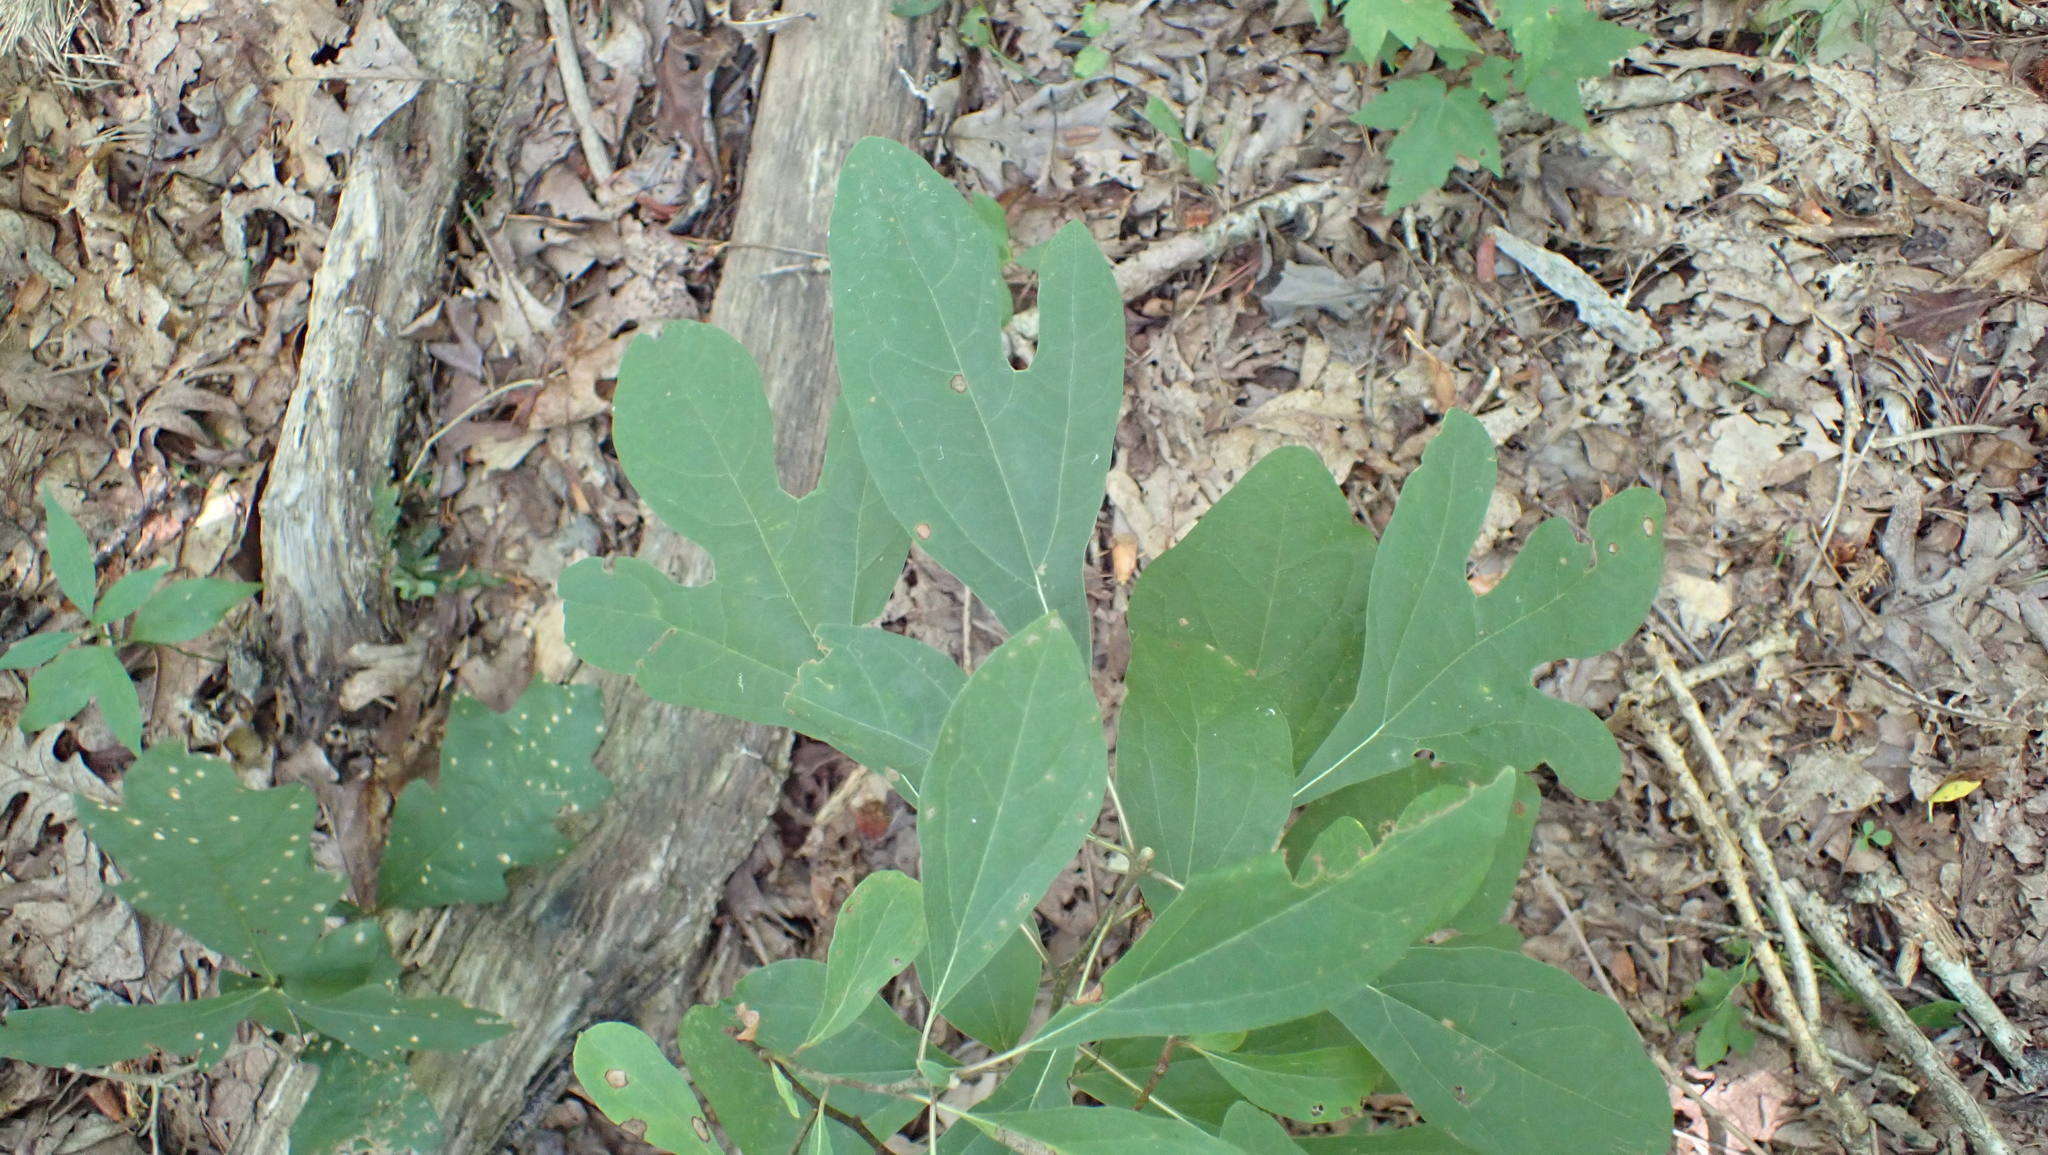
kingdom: Plantae
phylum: Tracheophyta
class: Magnoliopsida
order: Laurales
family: Lauraceae
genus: Sassafras
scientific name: Sassafras albidum
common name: Sassafras
